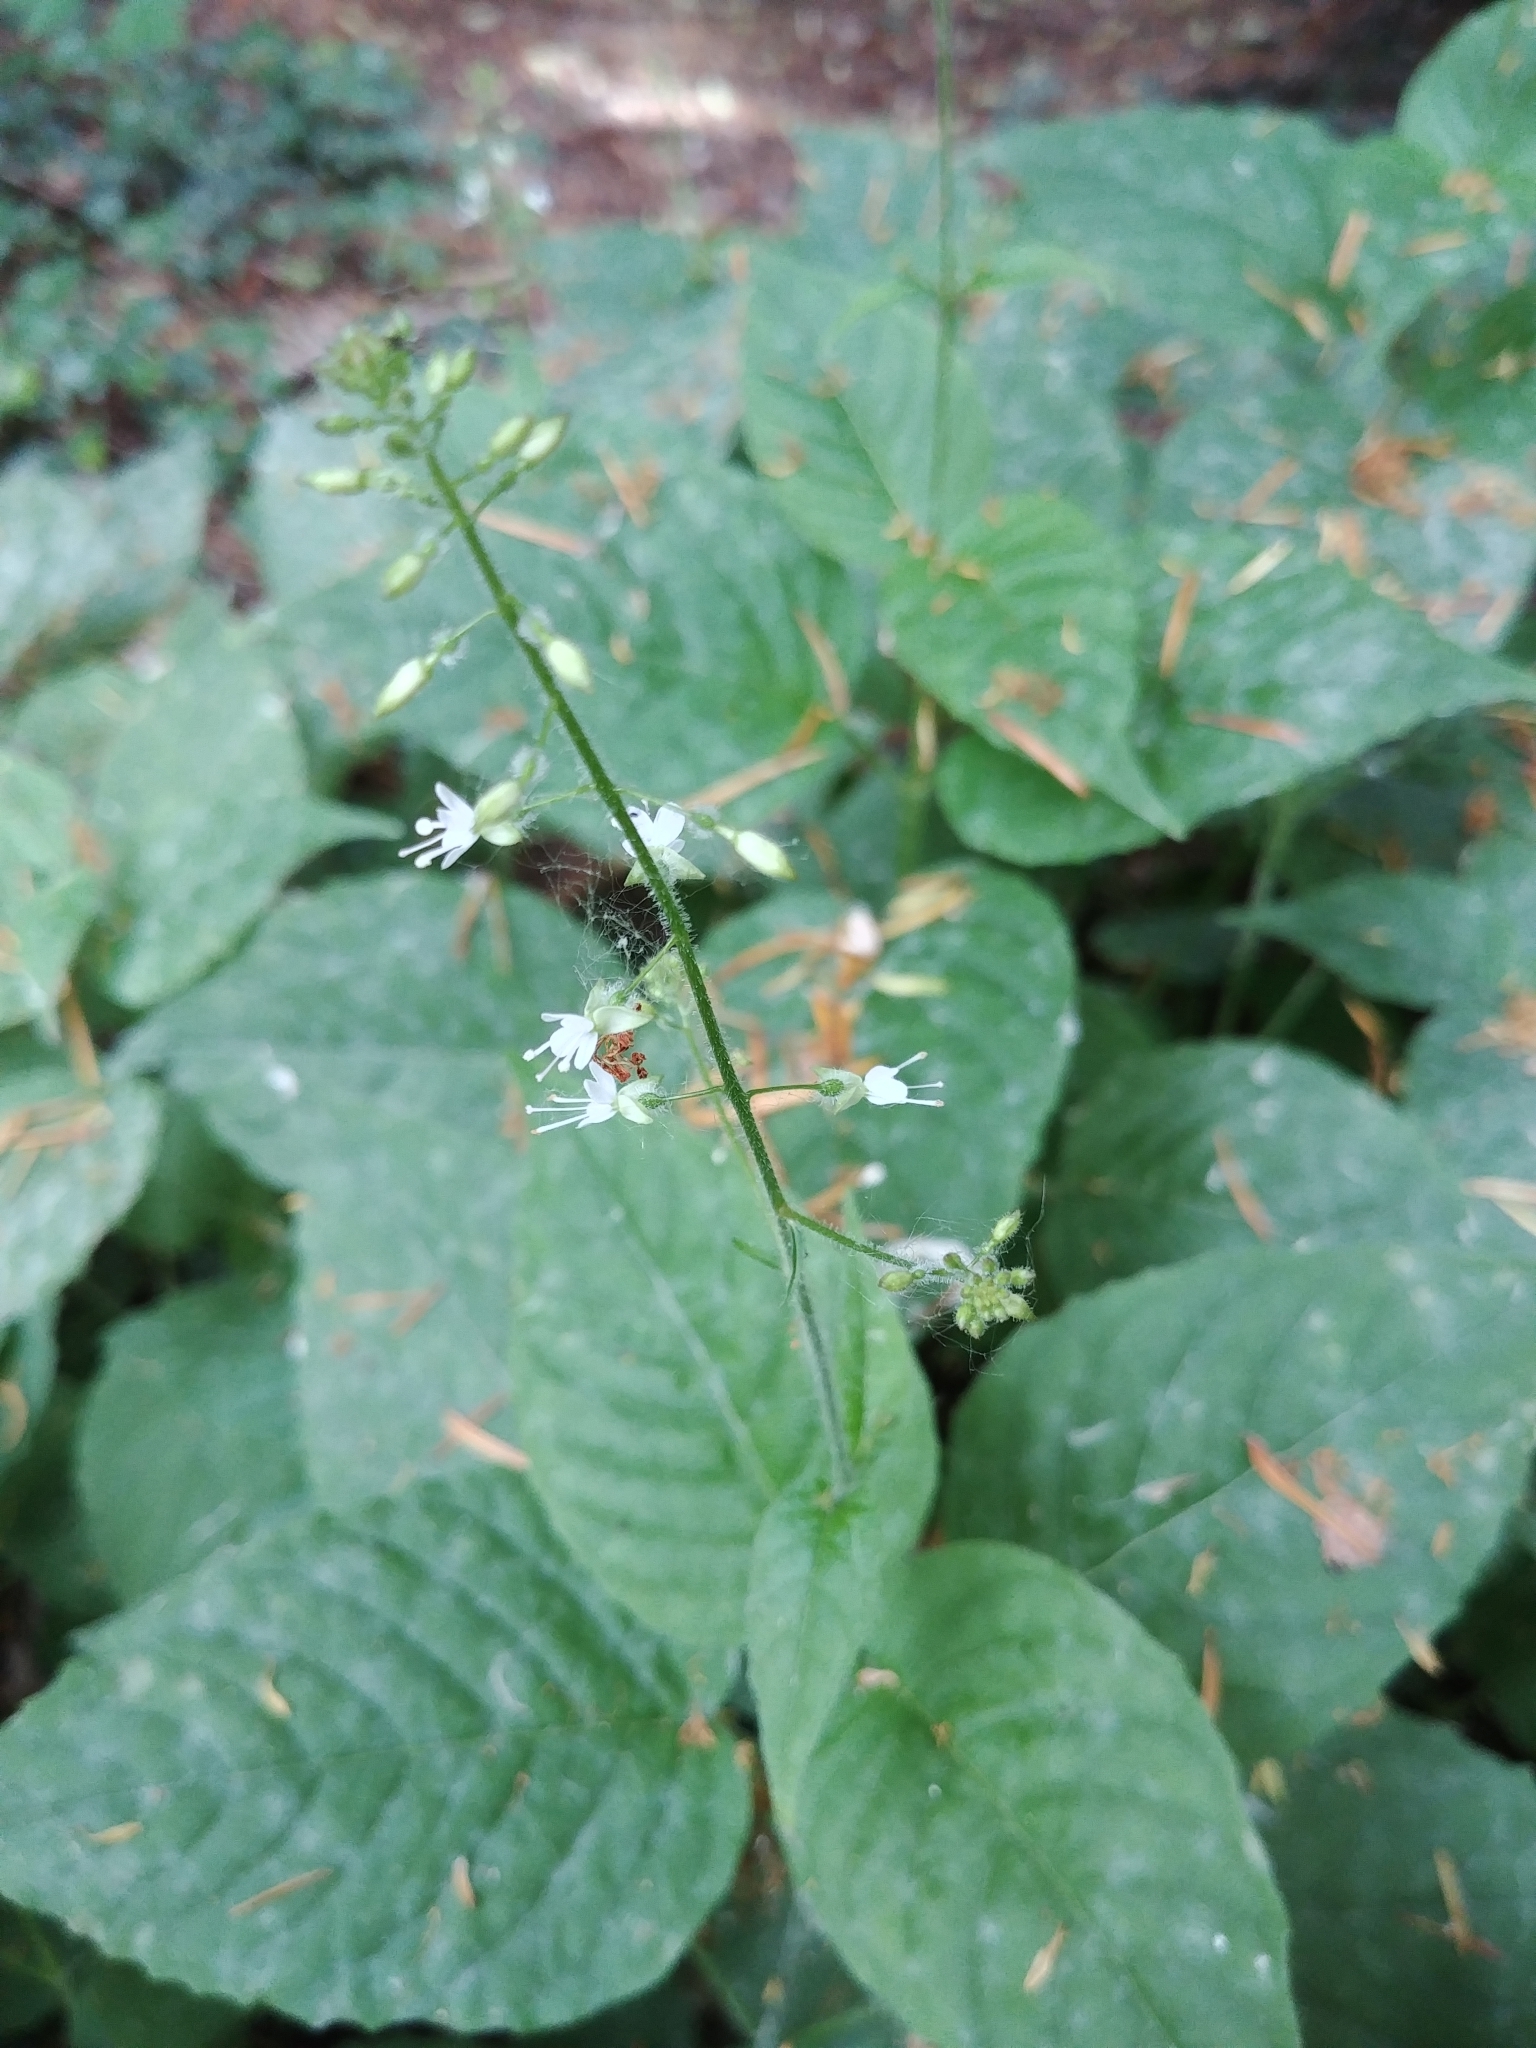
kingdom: Plantae
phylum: Tracheophyta
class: Magnoliopsida
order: Myrtales
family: Onagraceae
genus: Circaea
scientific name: Circaea lutetiana
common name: Enchanter's-nightshade
